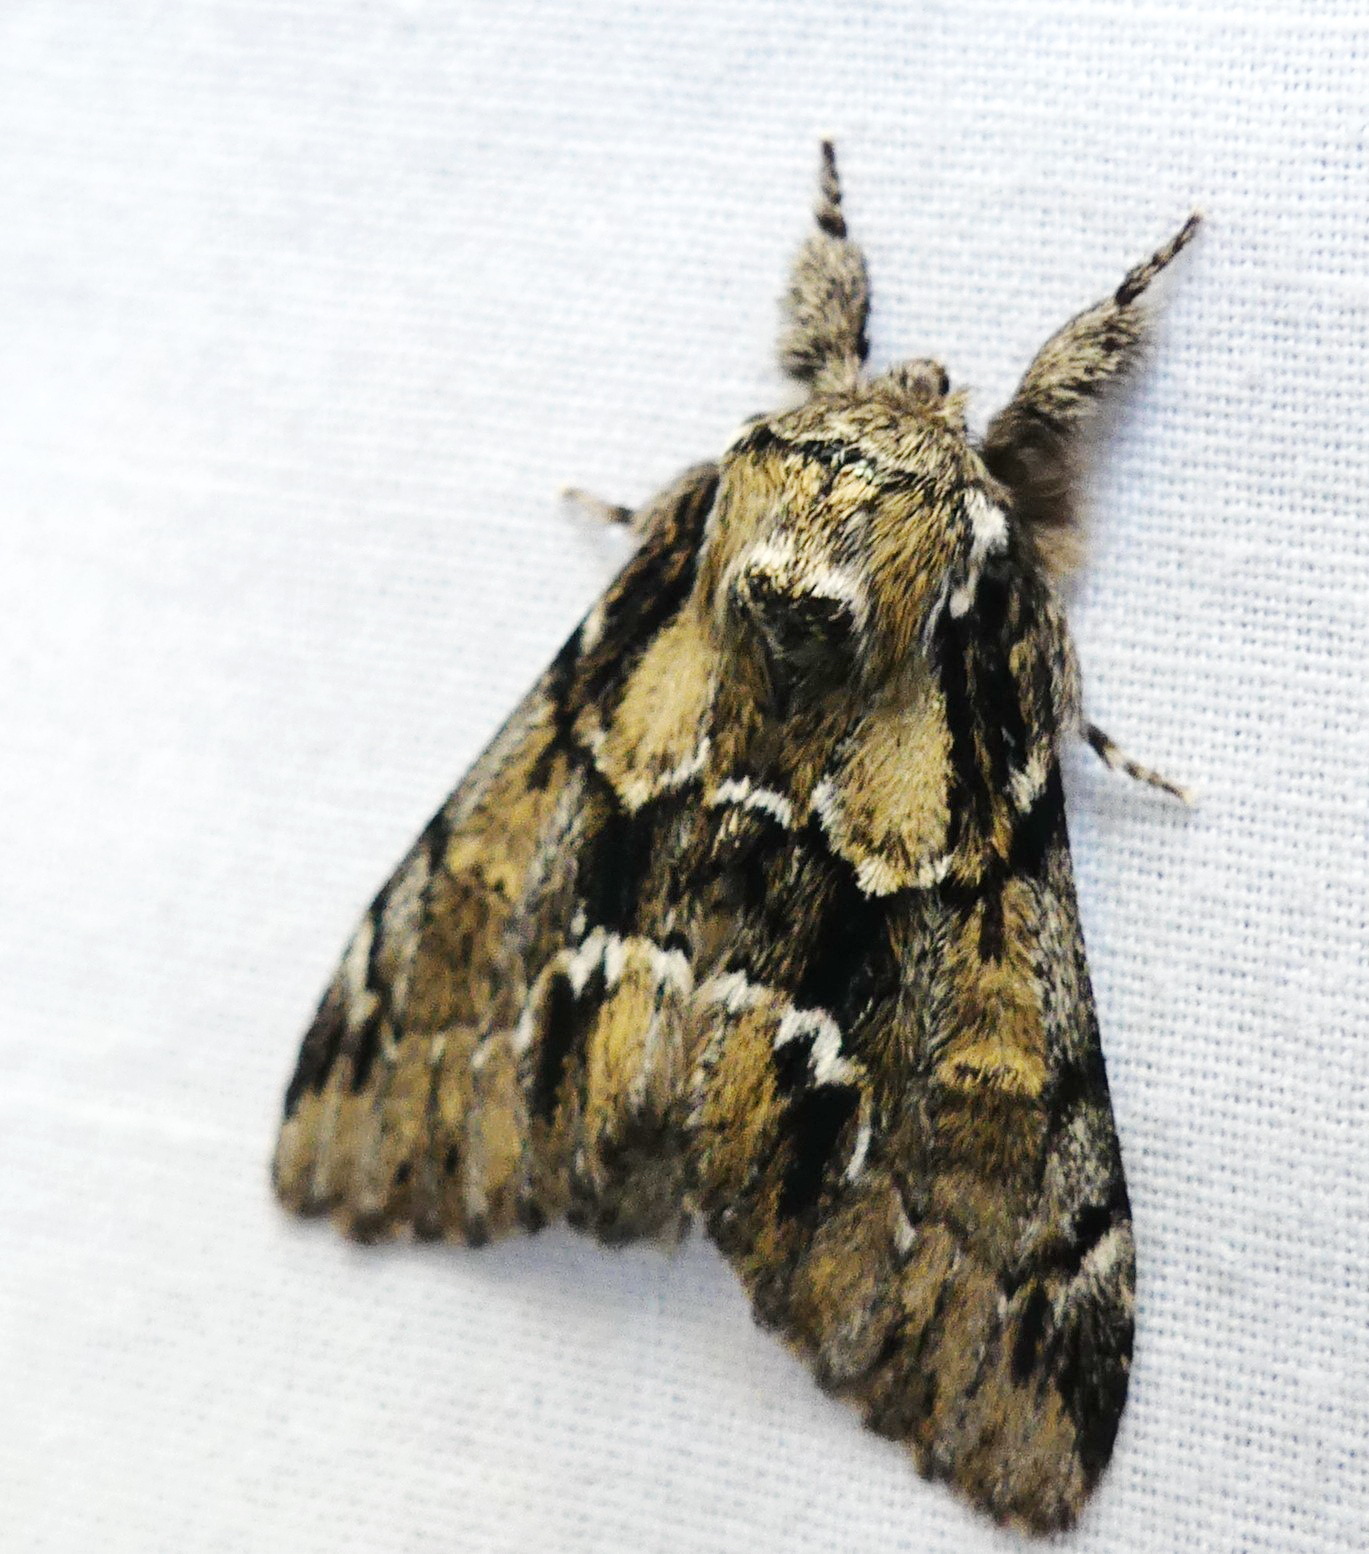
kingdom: Animalia
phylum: Arthropoda
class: Insecta
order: Lepidoptera
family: Notodontidae
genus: Paraeschra
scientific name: Paraeschra georgica
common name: Georgian prominent
